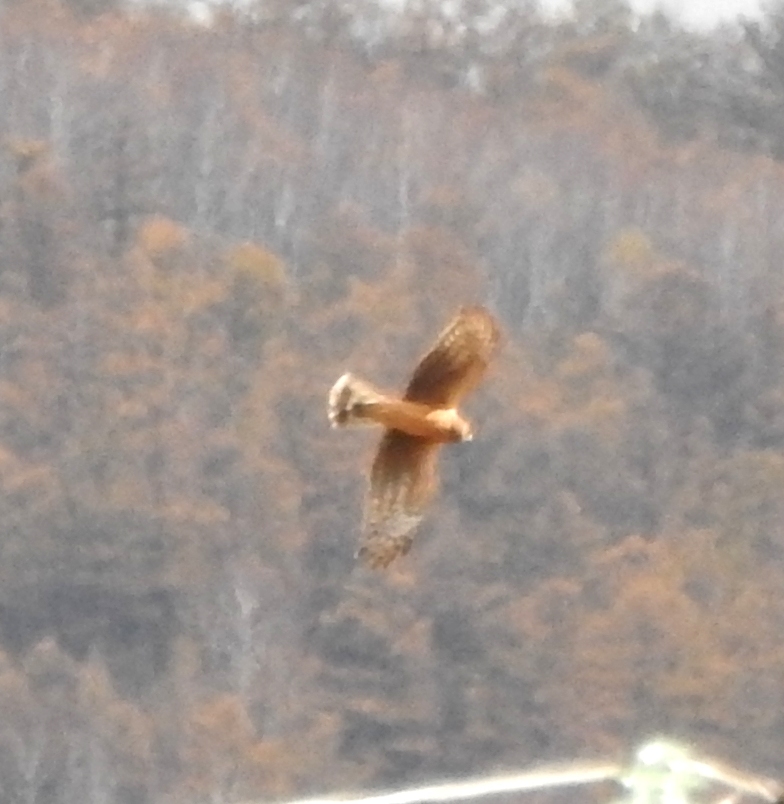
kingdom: Animalia
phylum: Chordata
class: Aves
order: Accipitriformes
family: Accipitridae
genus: Circus
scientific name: Circus cyaneus
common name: Hen harrier
